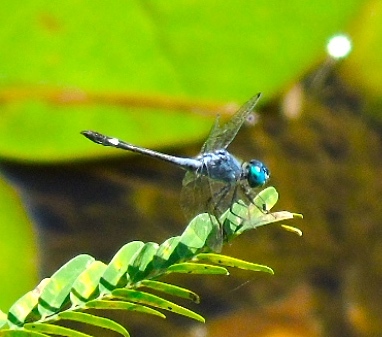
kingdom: Animalia
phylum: Arthropoda
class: Insecta
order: Odonata
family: Libellulidae
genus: Micrathyria
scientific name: Micrathyria aequalis
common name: Spot-tailed dasher
